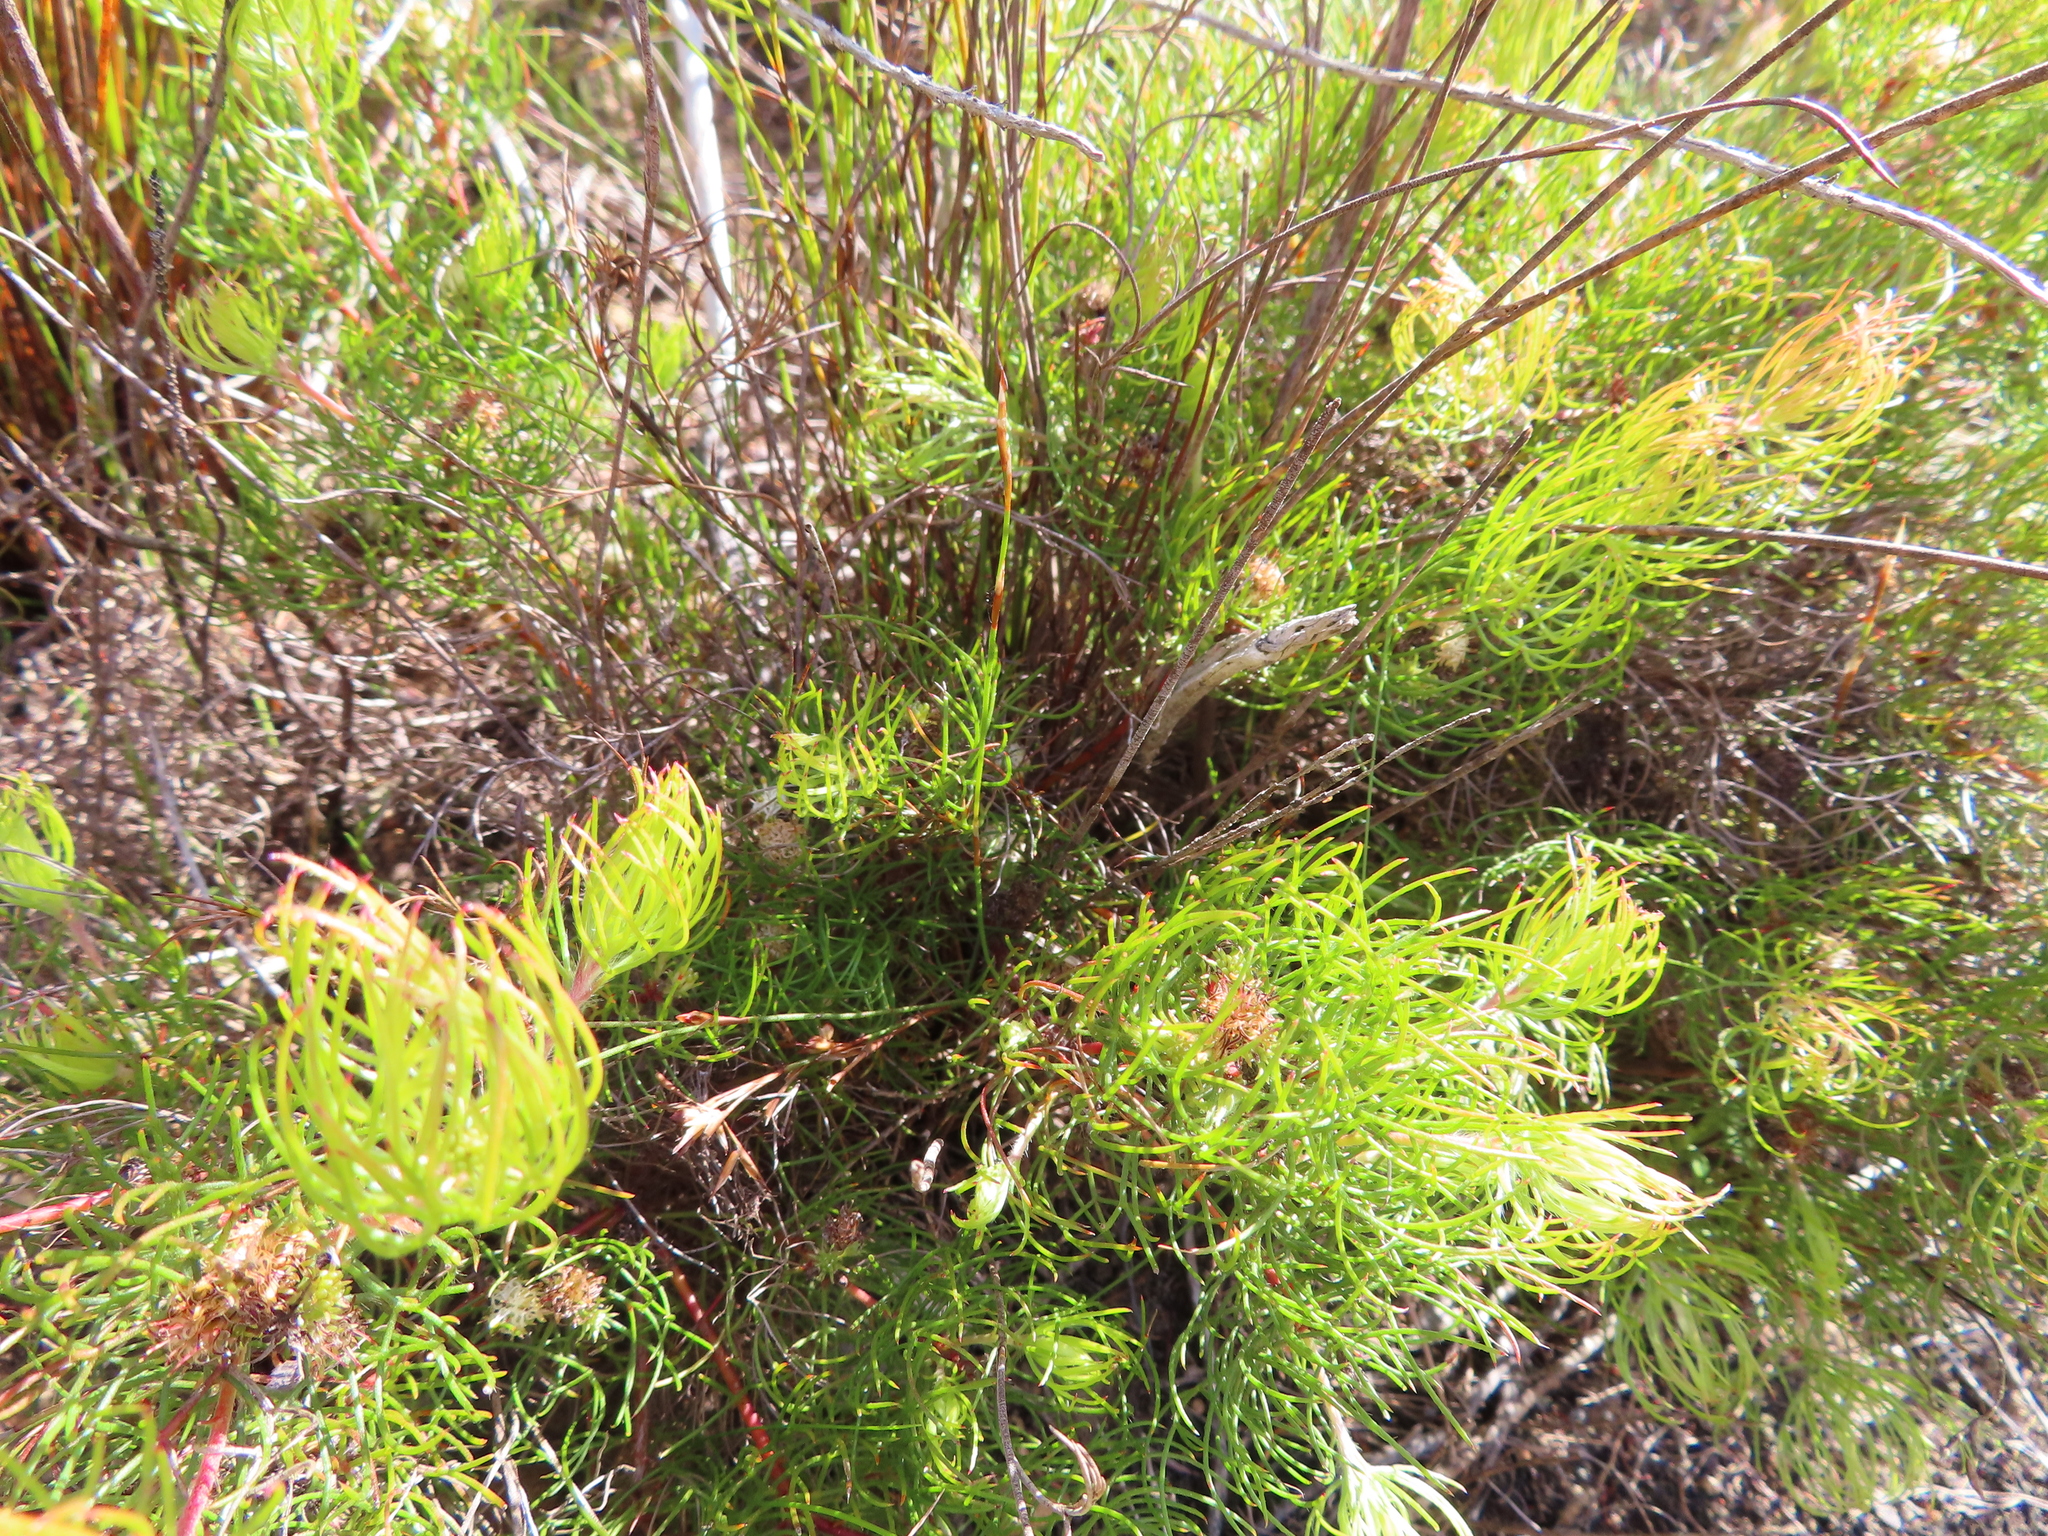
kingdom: Plantae
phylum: Tracheophyta
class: Magnoliopsida
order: Proteales
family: Proteaceae
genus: Serruria
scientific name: Serruria inconspicua
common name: Cryptic spiderhead
